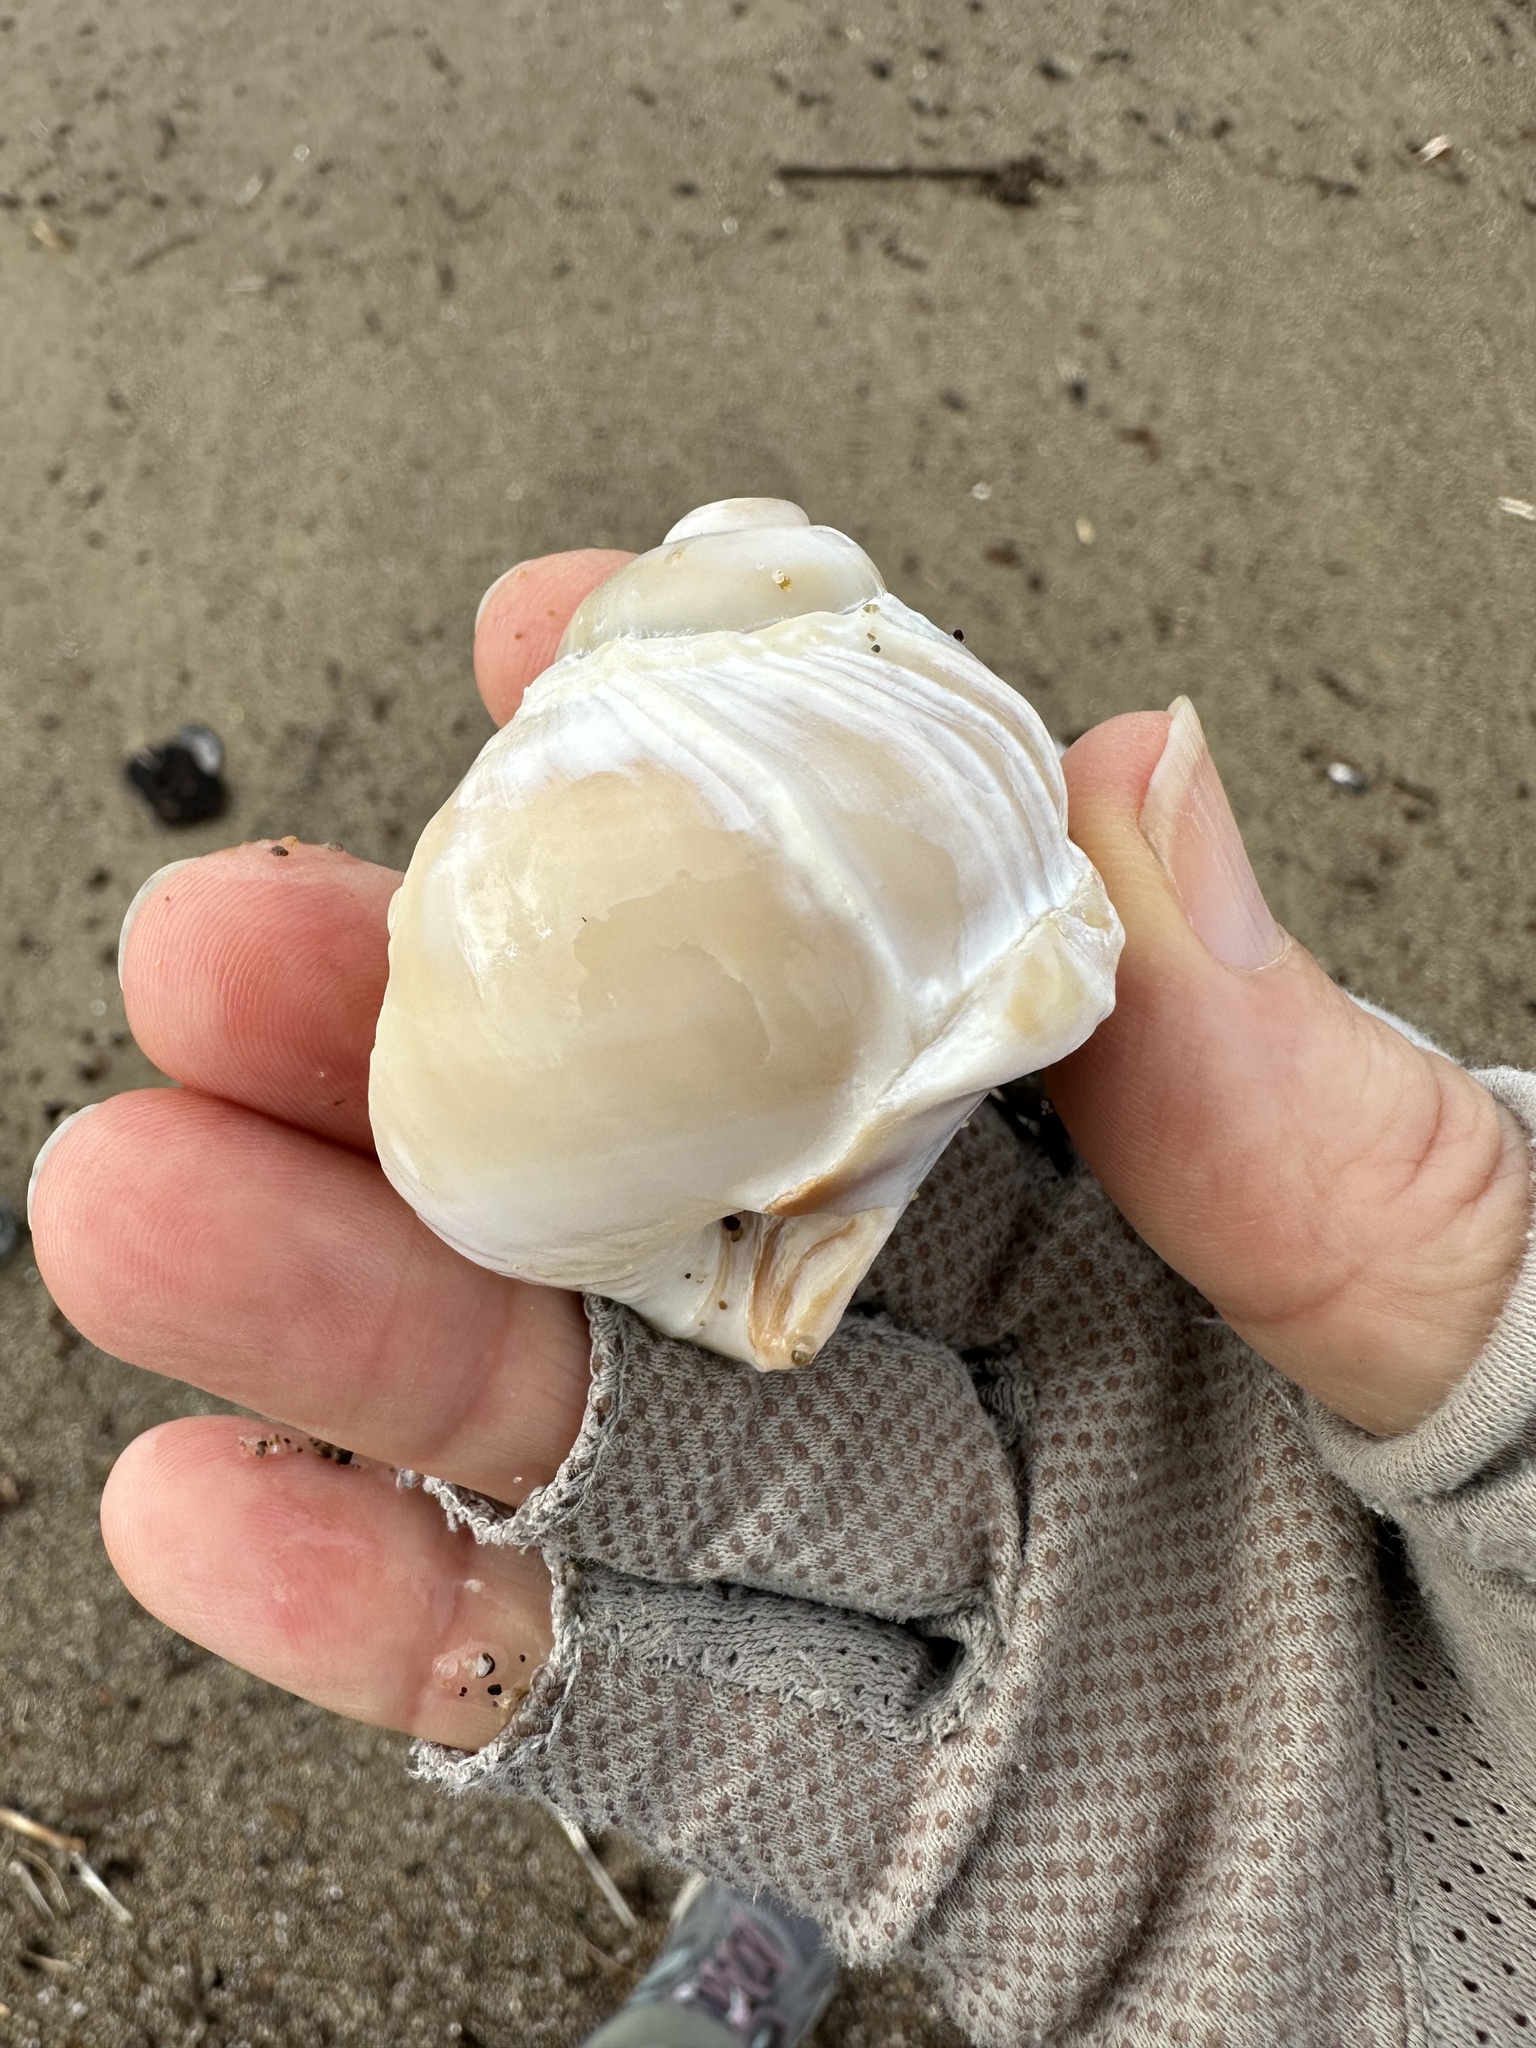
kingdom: Animalia
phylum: Mollusca
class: Gastropoda
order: Littorinimorpha
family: Naticidae
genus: Neverita
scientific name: Neverita lewisii
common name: Lewis' moonsnail
